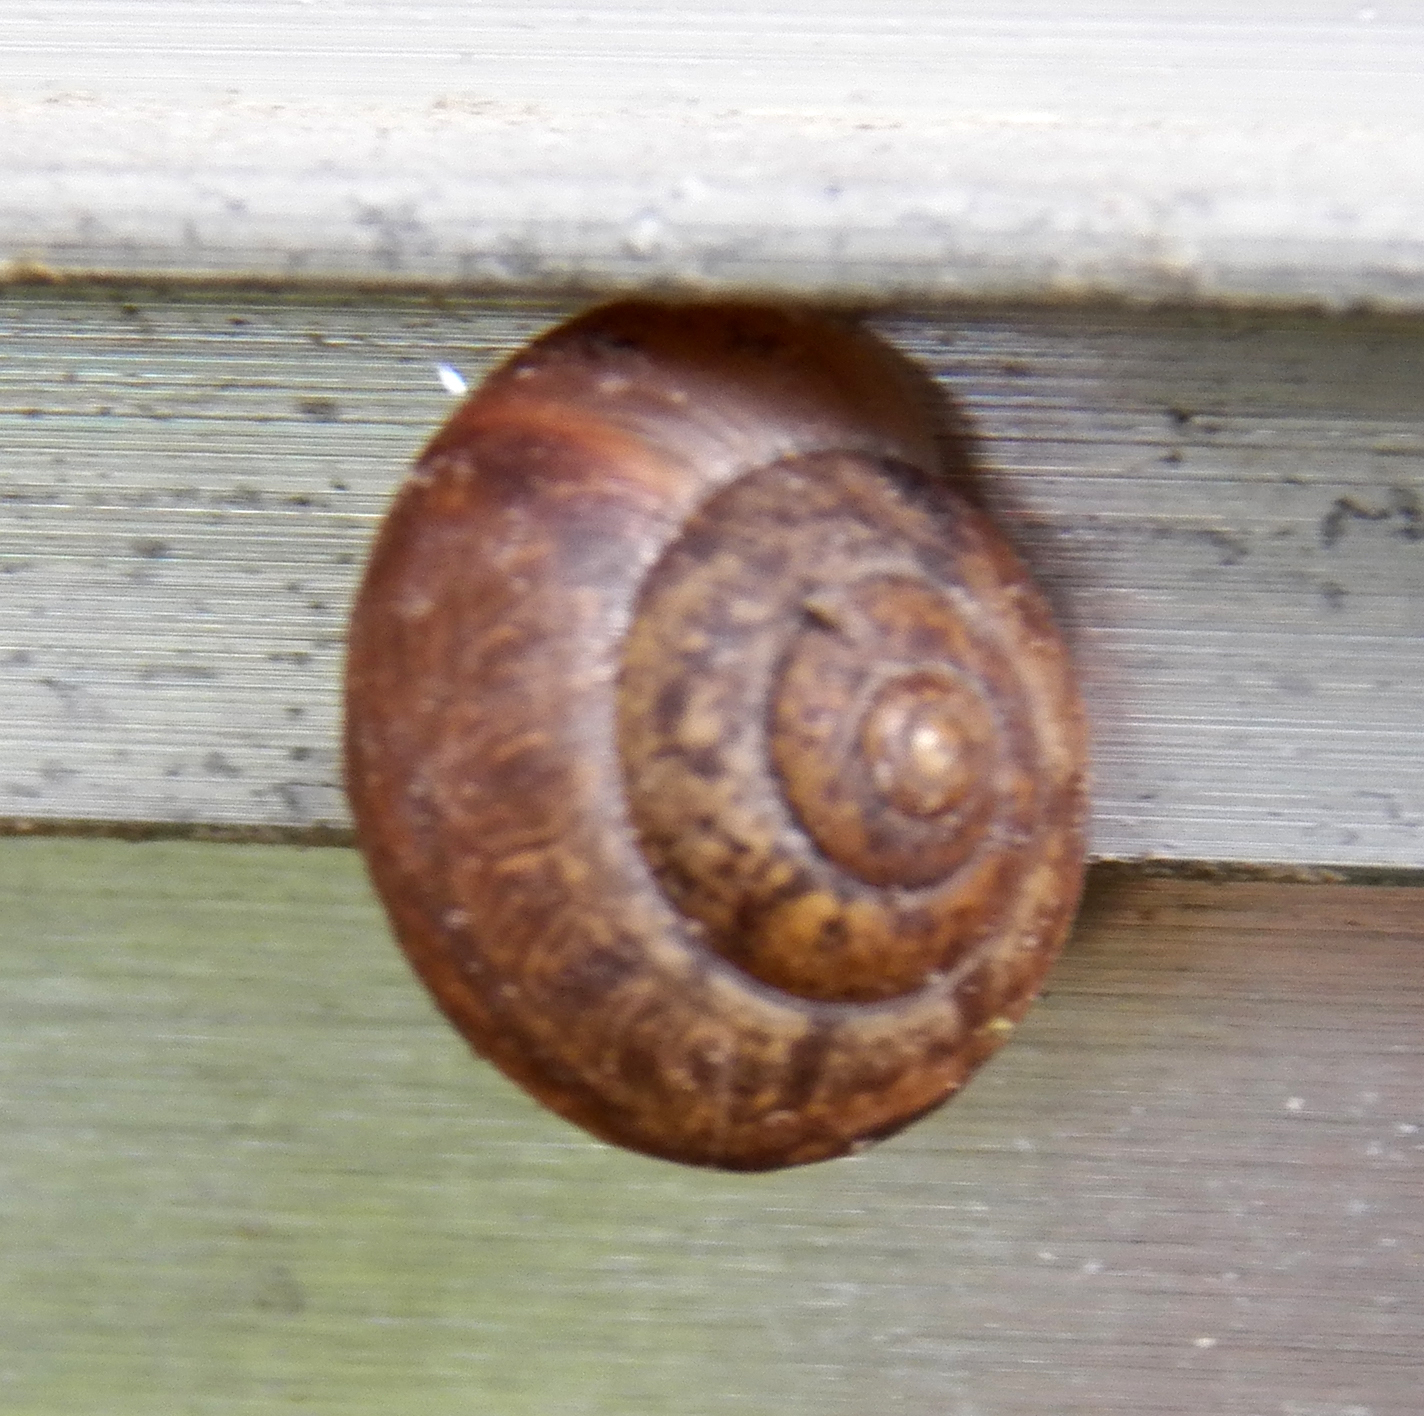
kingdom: Animalia
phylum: Mollusca
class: Gastropoda
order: Stylommatophora
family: Camaenidae
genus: Bradybaena
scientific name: Bradybaena similaris
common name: Asian trampsnail
